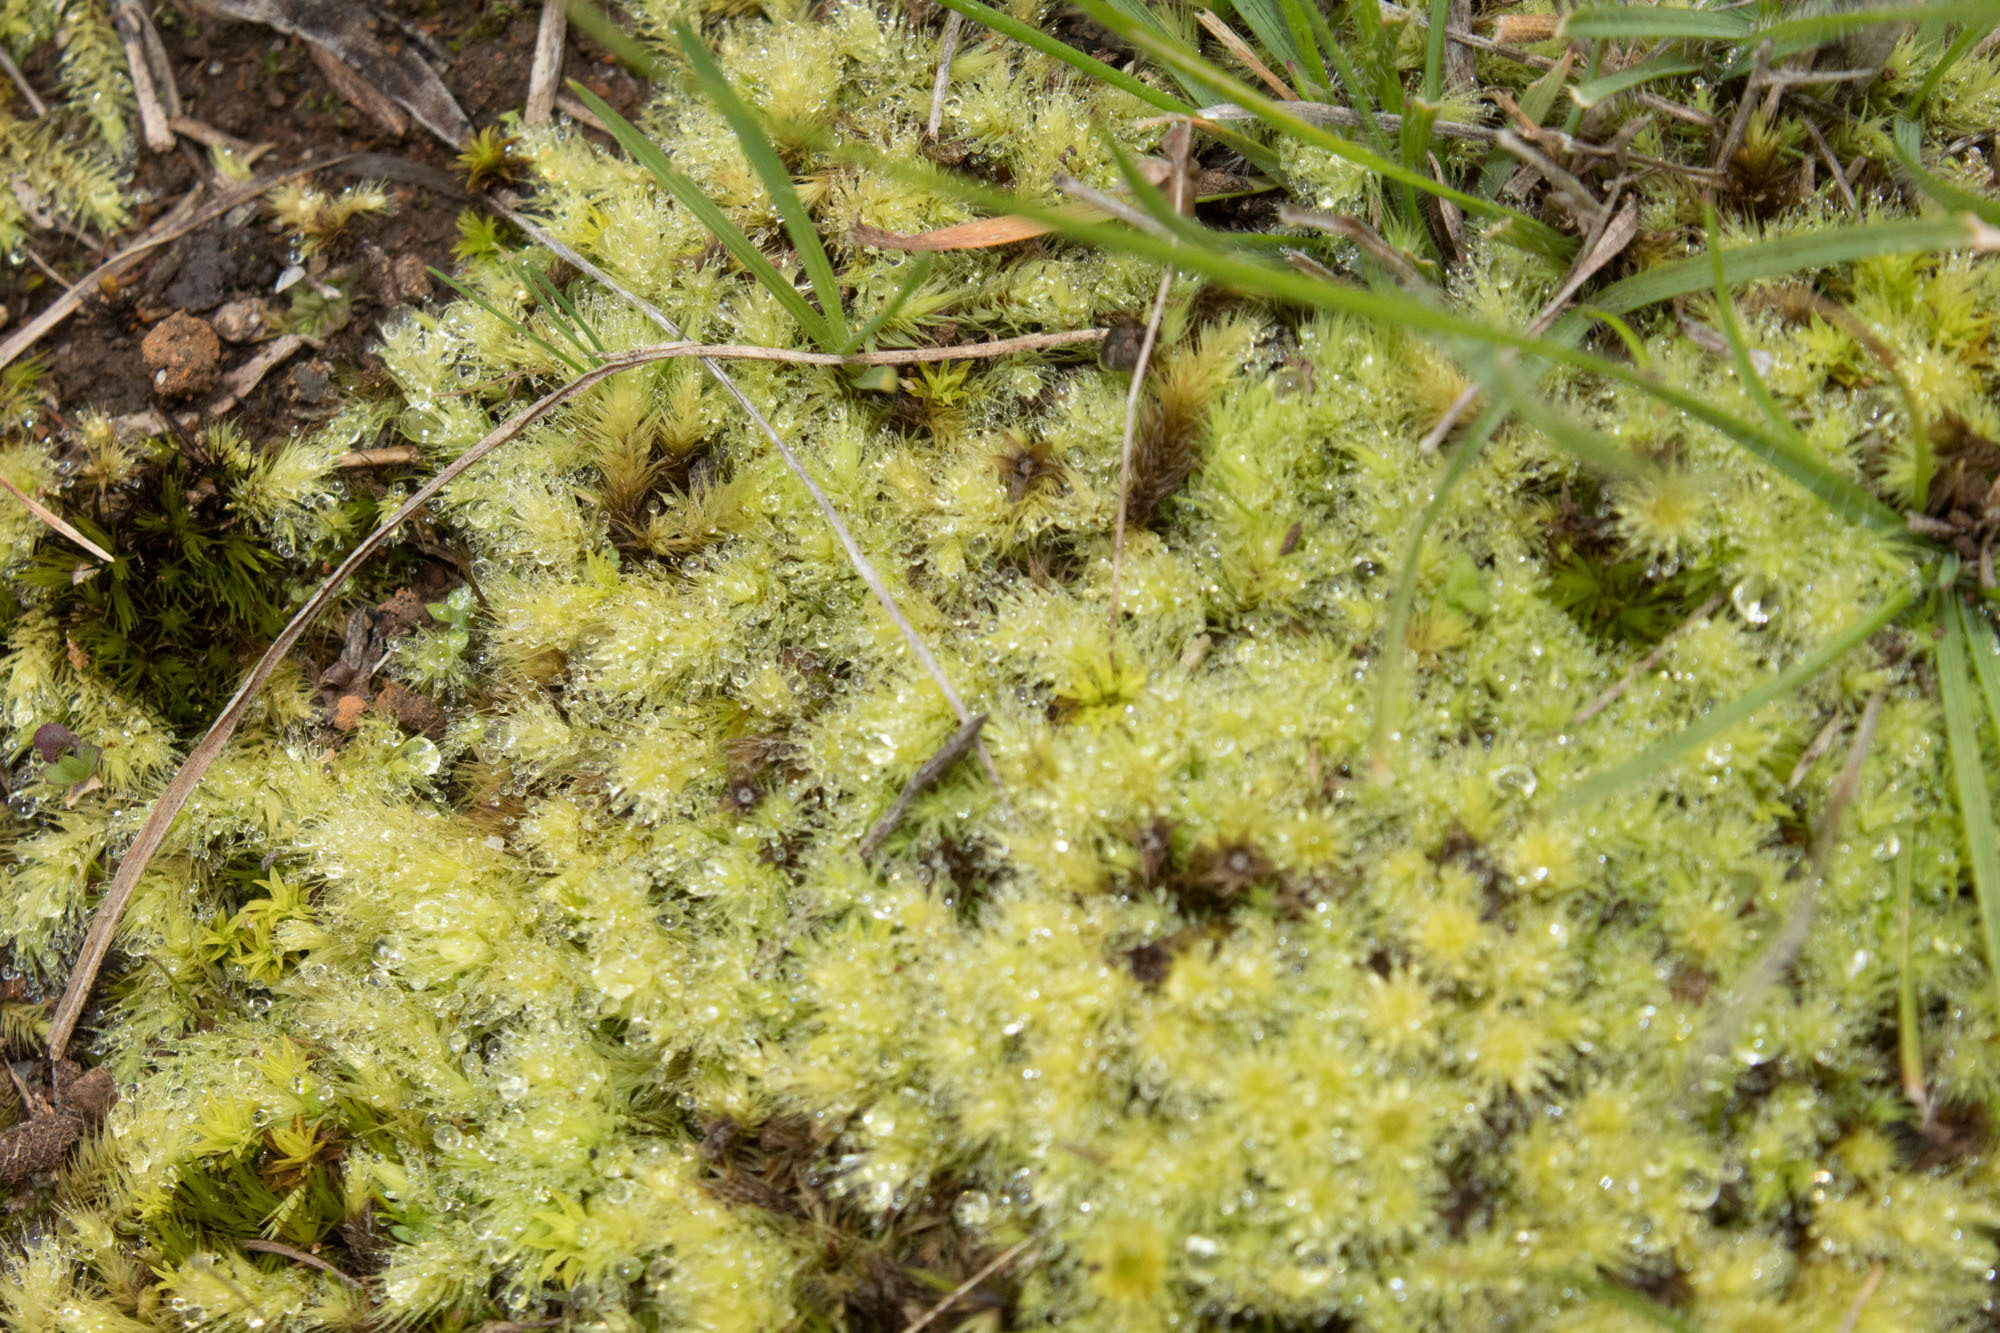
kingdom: Plantae
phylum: Bryophyta
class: Bryopsida
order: Bartramiales
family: Bartramiaceae
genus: Breutelia
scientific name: Breutelia affinis
